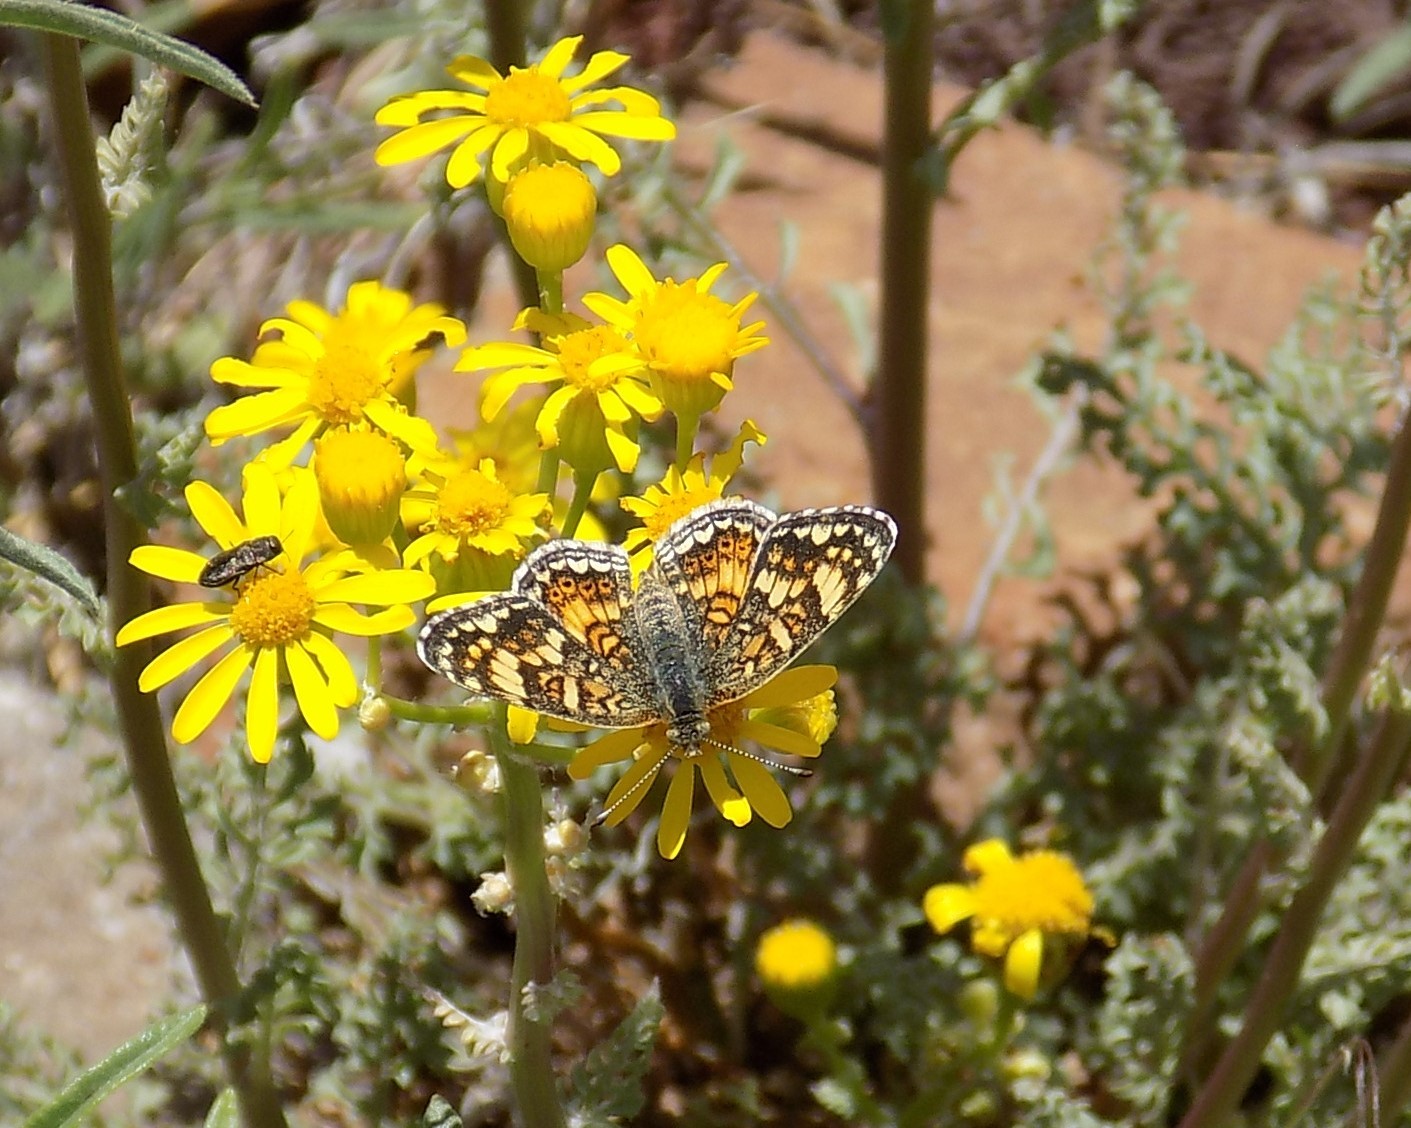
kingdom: Animalia
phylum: Arthropoda
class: Insecta
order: Lepidoptera
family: Nymphalidae
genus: Phyciodes
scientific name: Phyciodes tharos
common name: Pearl crescent
